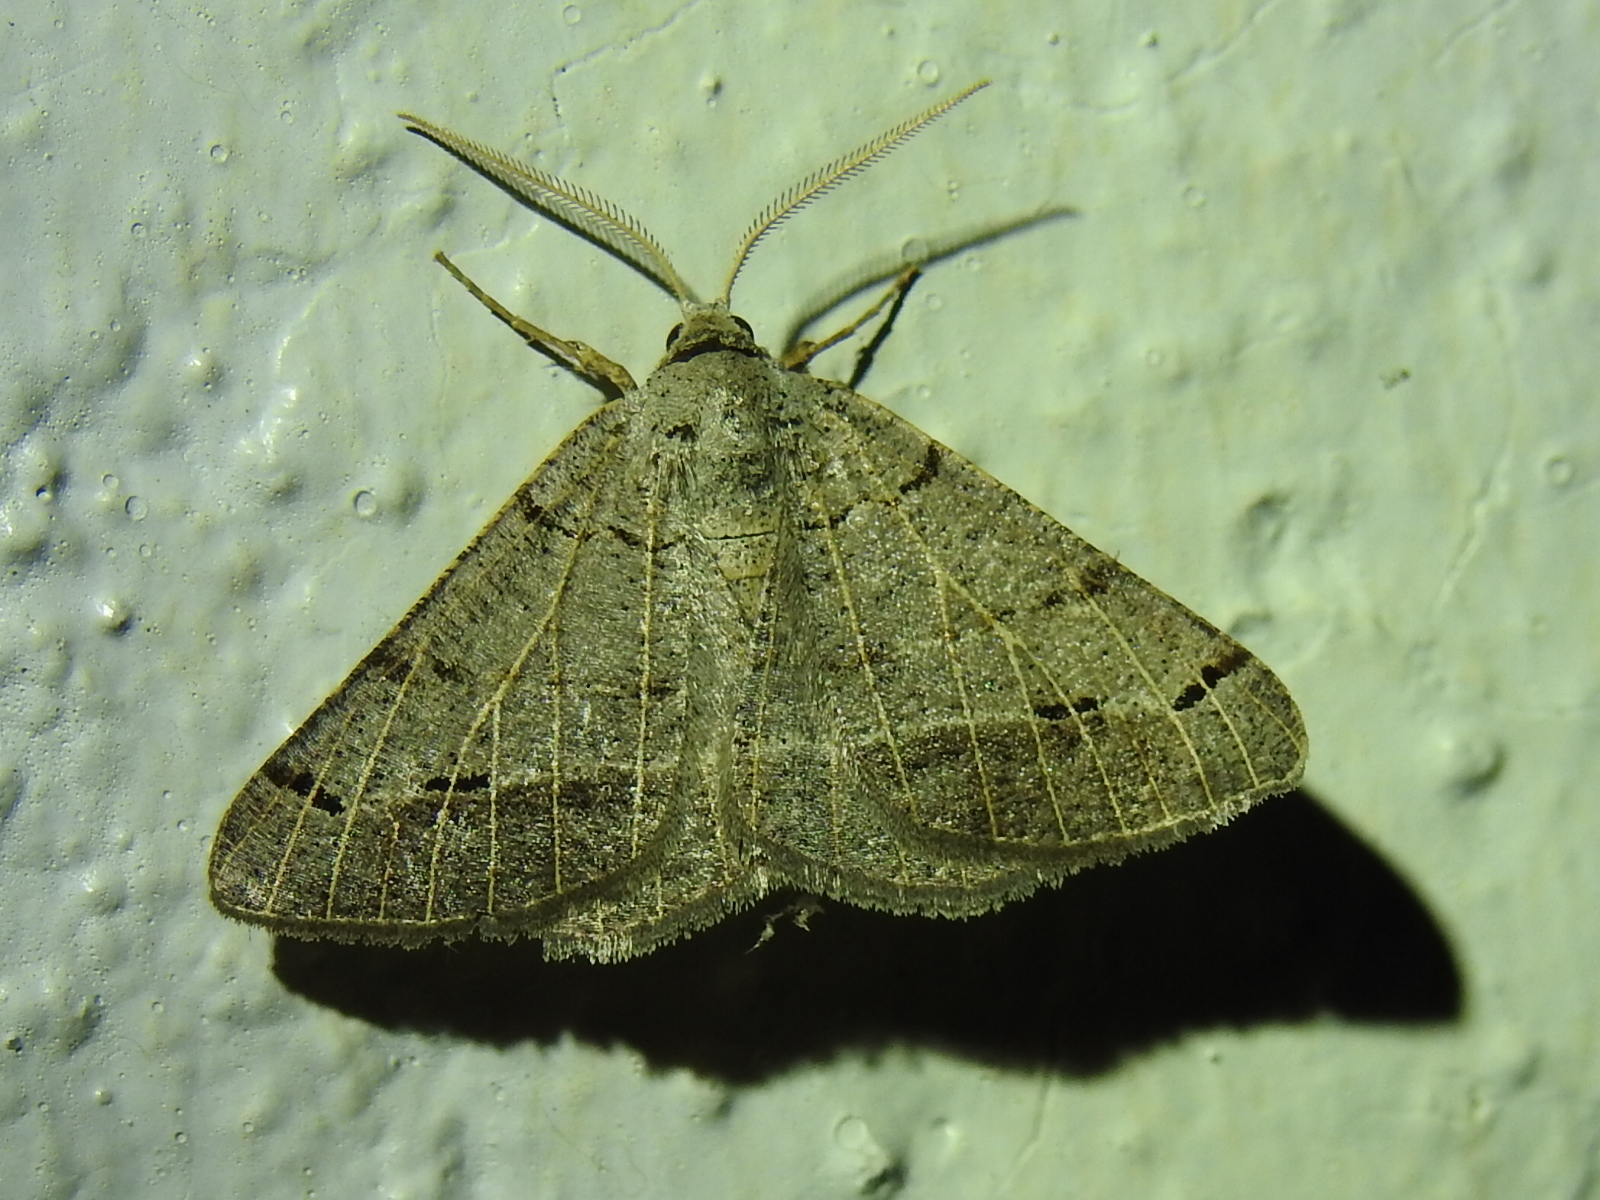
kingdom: Animalia
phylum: Arthropoda
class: Insecta
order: Lepidoptera
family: Geometridae
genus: Isturgia
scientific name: Isturgia dislocaria
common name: Pale-viened enconista
